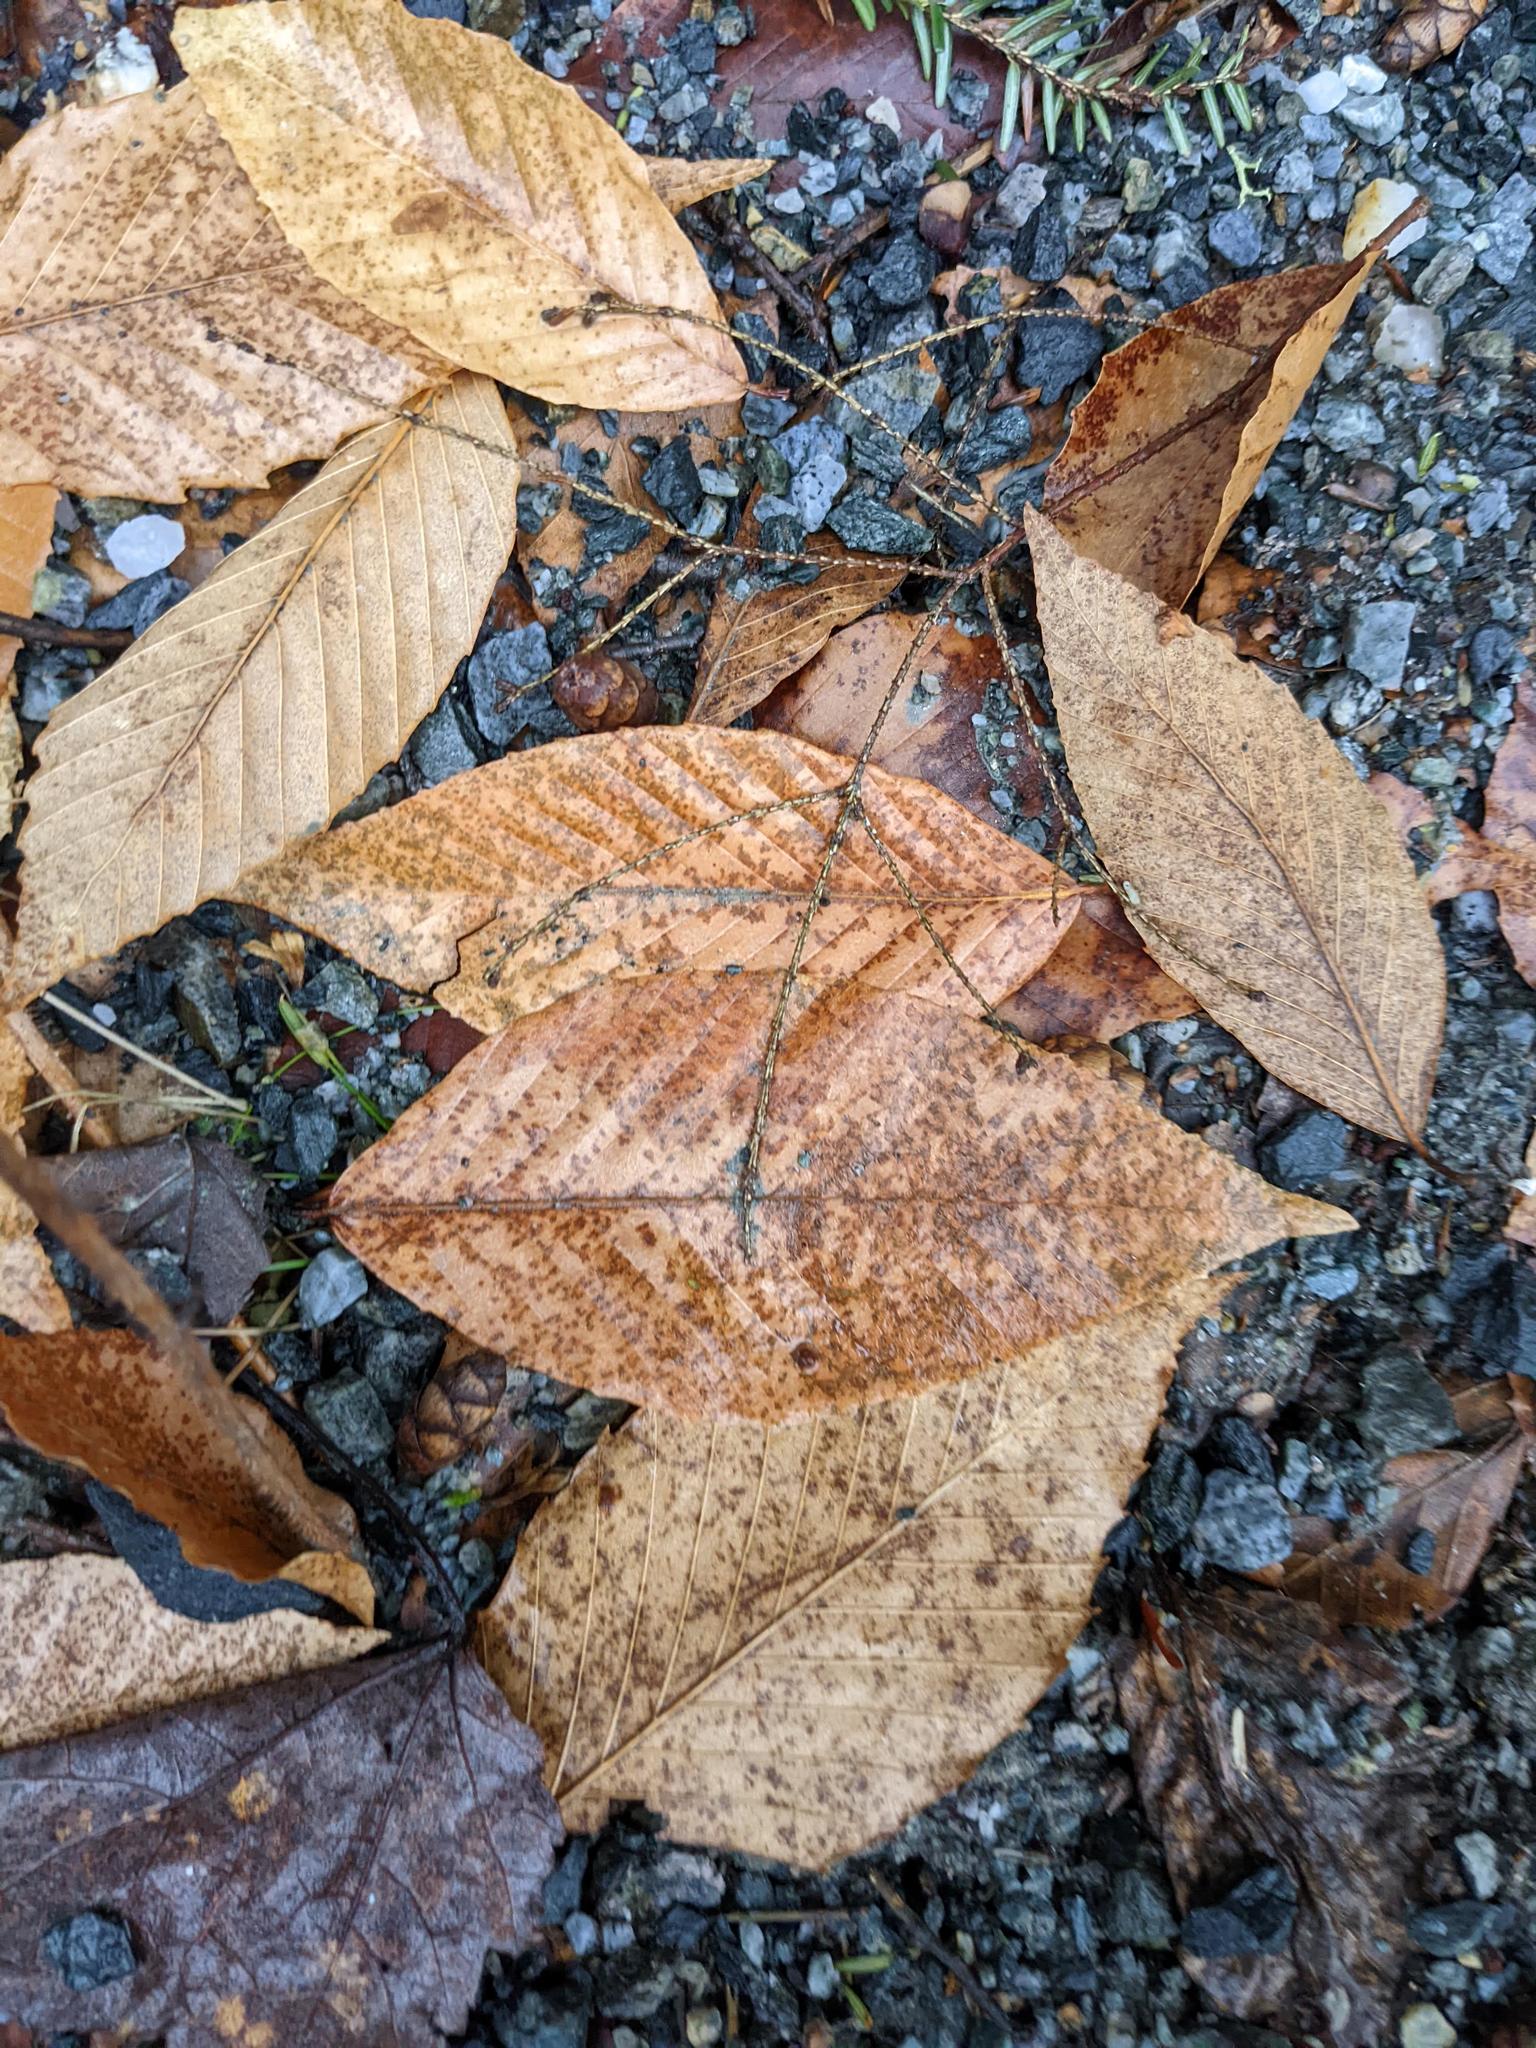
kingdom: Plantae
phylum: Tracheophyta
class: Magnoliopsida
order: Fagales
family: Fagaceae
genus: Fagus
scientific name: Fagus grandifolia
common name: American beech
